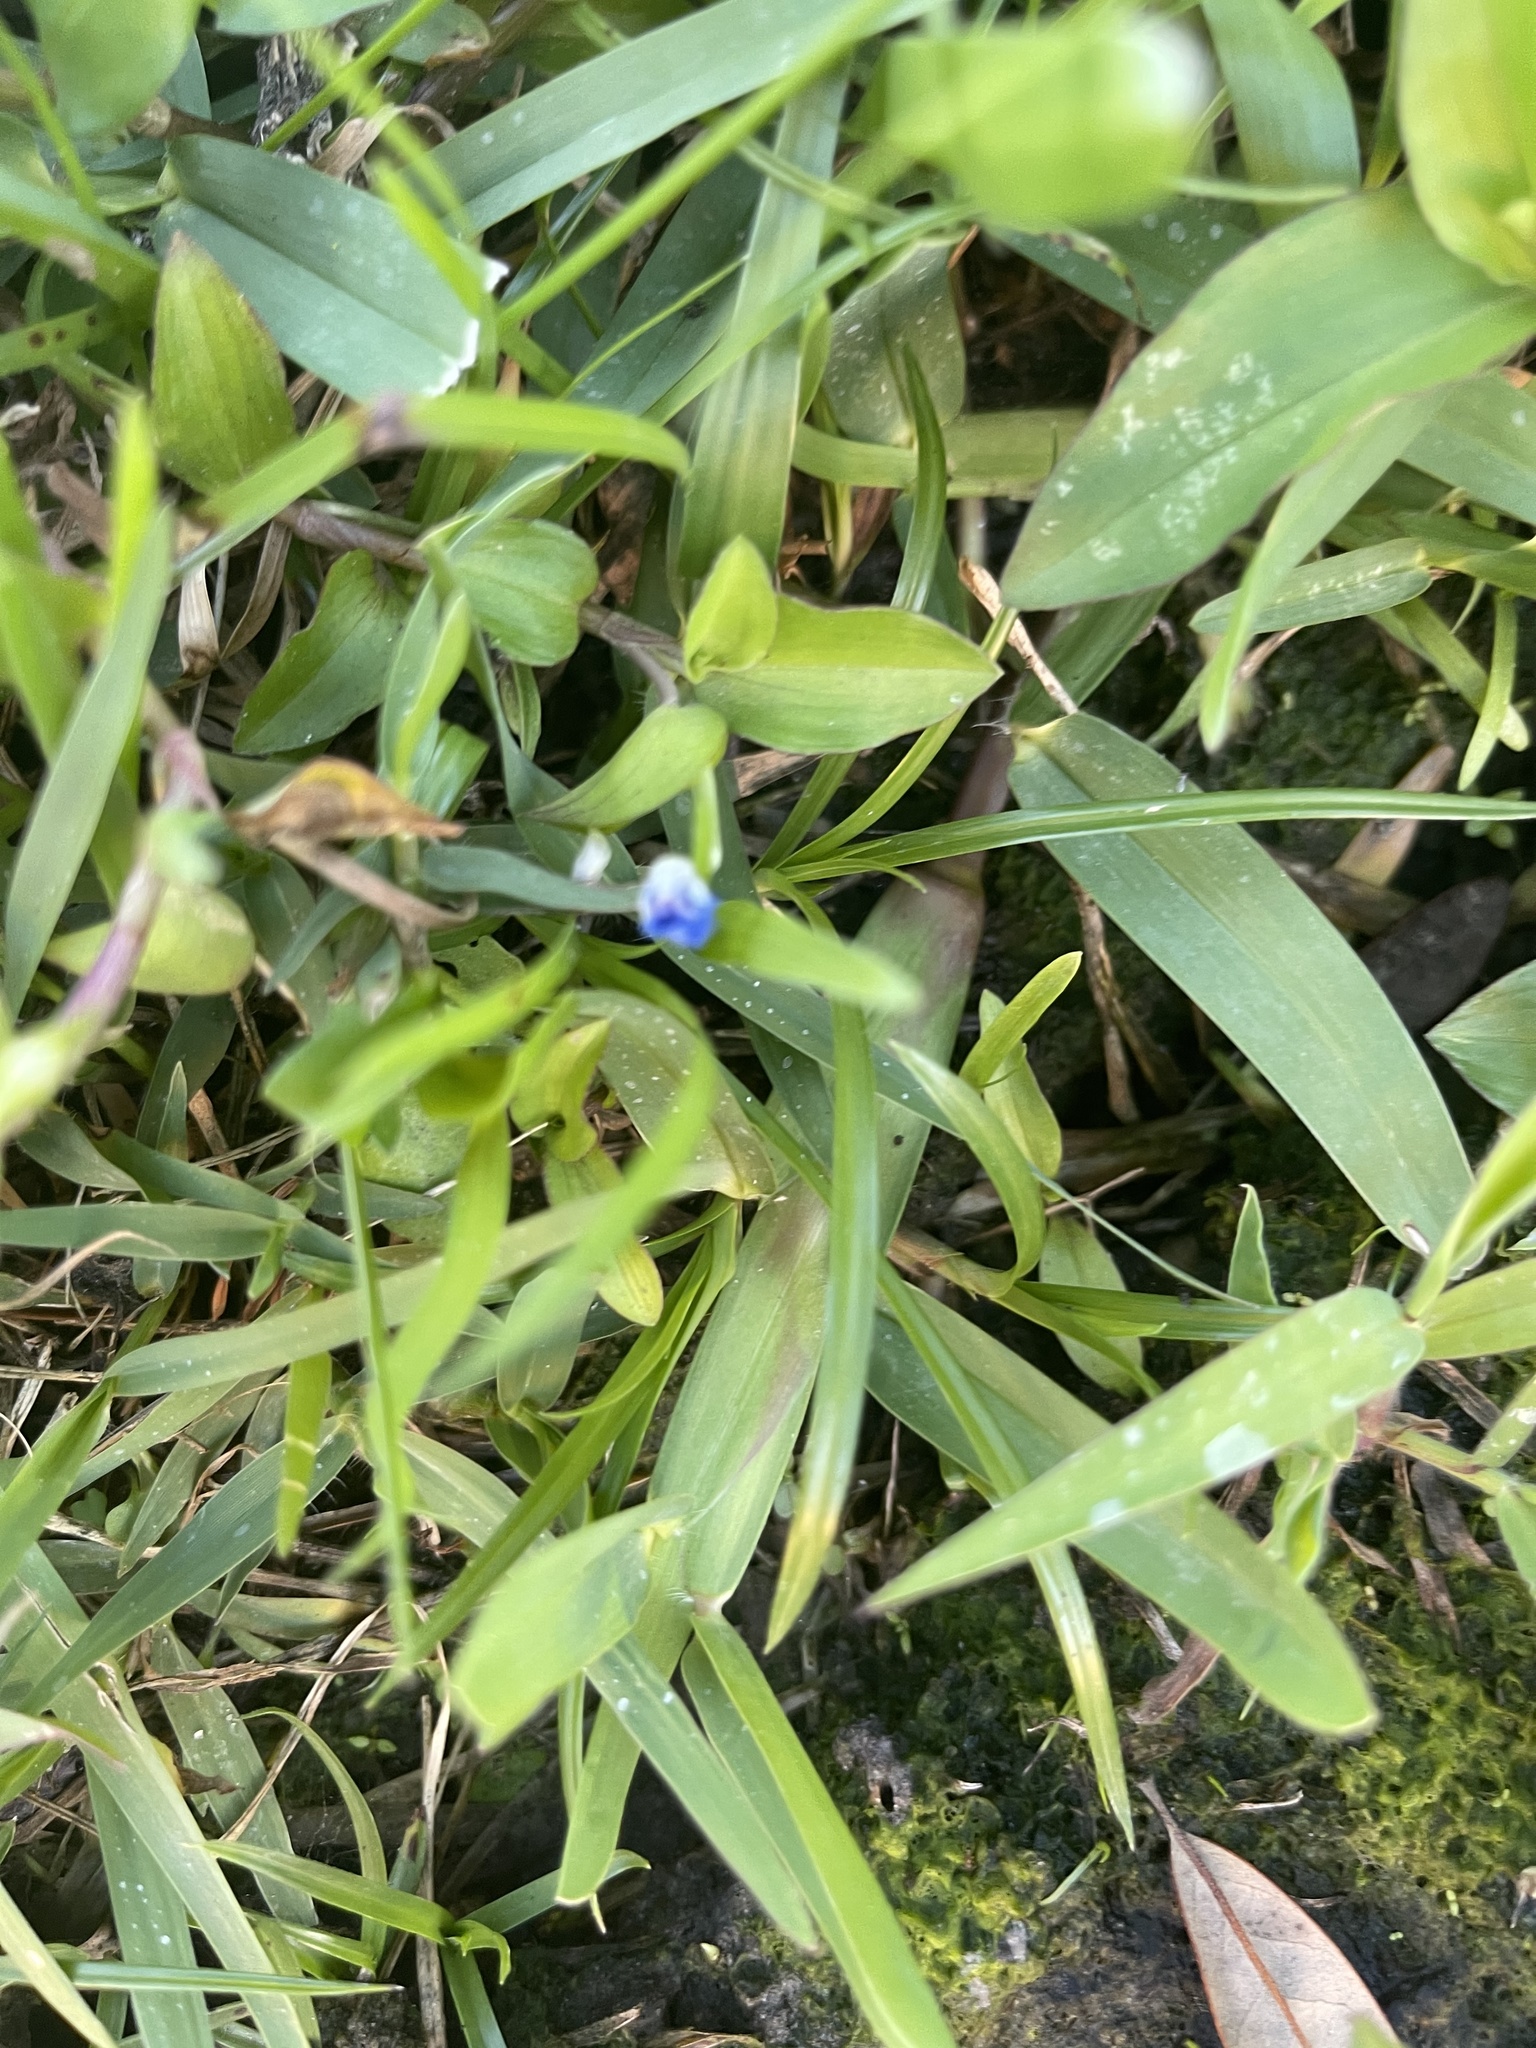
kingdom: Plantae
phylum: Tracheophyta
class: Liliopsida
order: Commelinales
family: Commelinaceae
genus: Commelina
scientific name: Commelina diffusa
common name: Climbing dayflower
